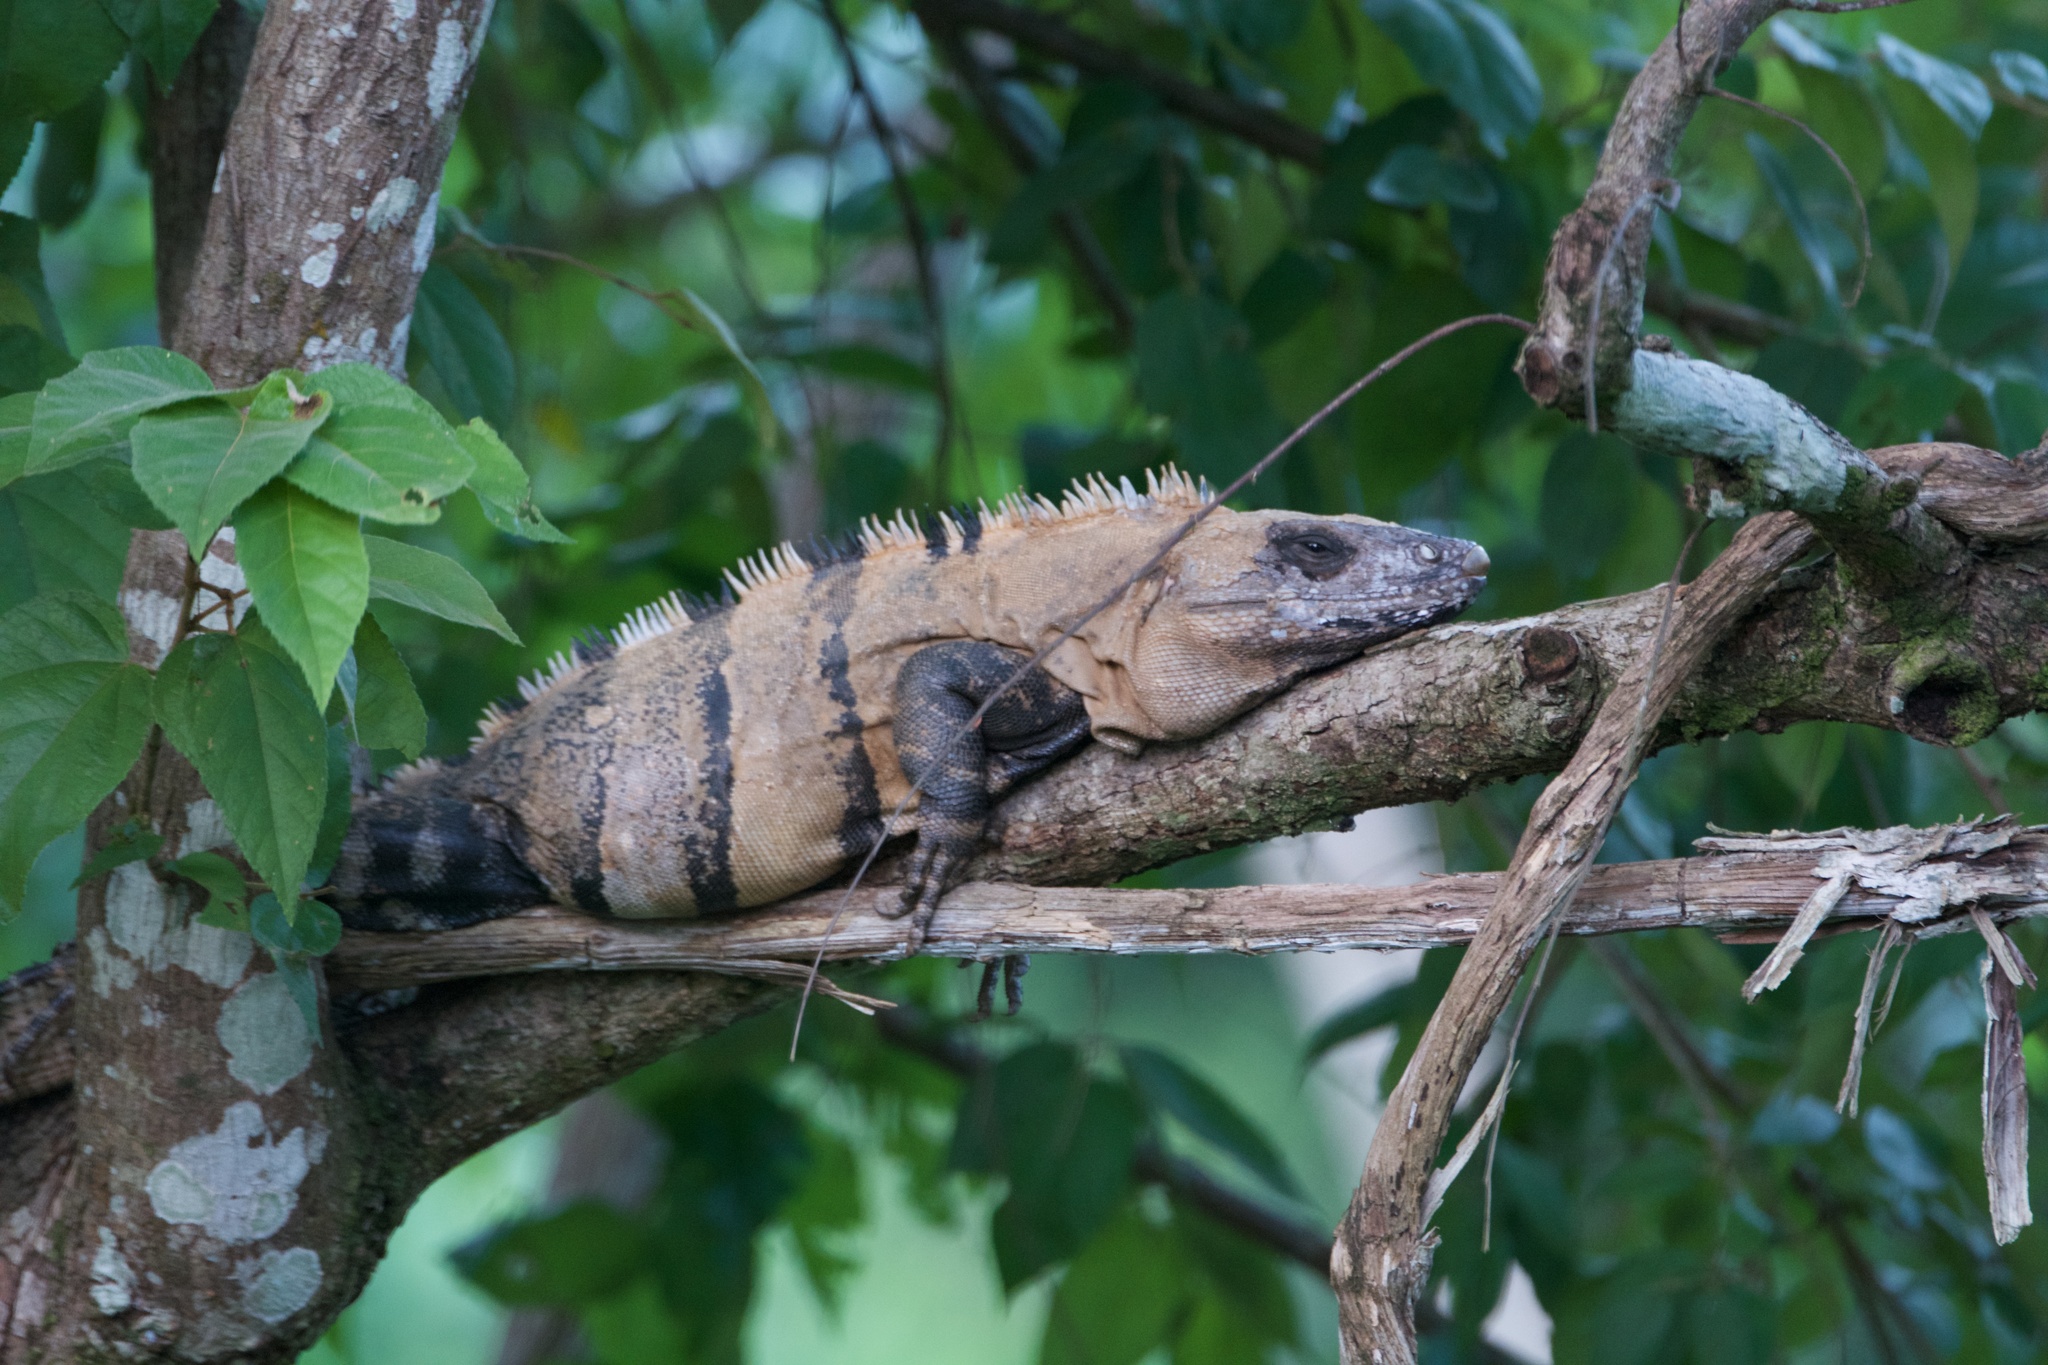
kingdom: Animalia
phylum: Chordata
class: Squamata
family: Iguanidae
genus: Ctenosaura
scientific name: Ctenosaura similis
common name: Black spiny-tailed iguana
